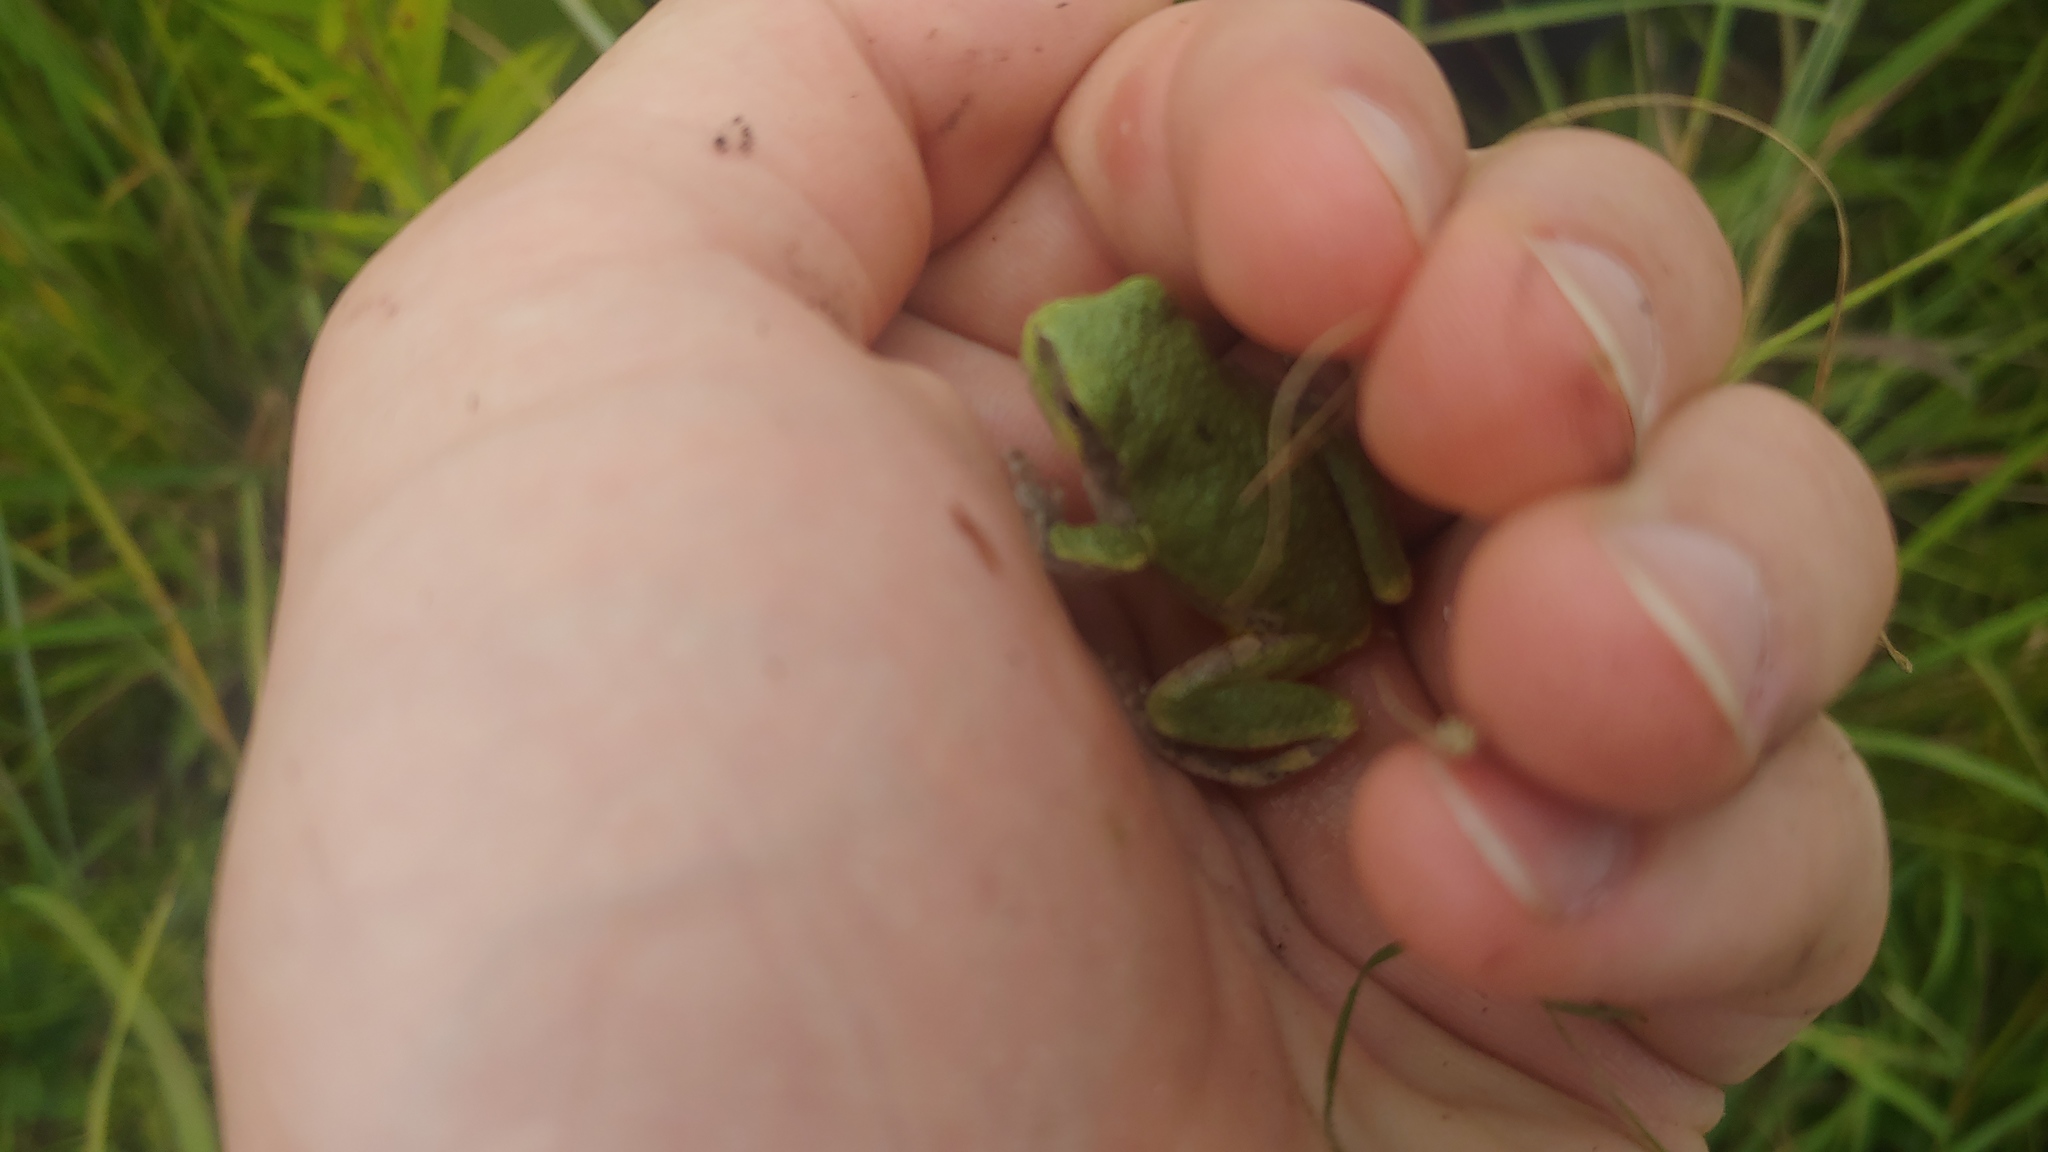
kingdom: Animalia
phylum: Chordata
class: Amphibia
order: Anura
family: Hylidae
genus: Hyla
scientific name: Hyla
